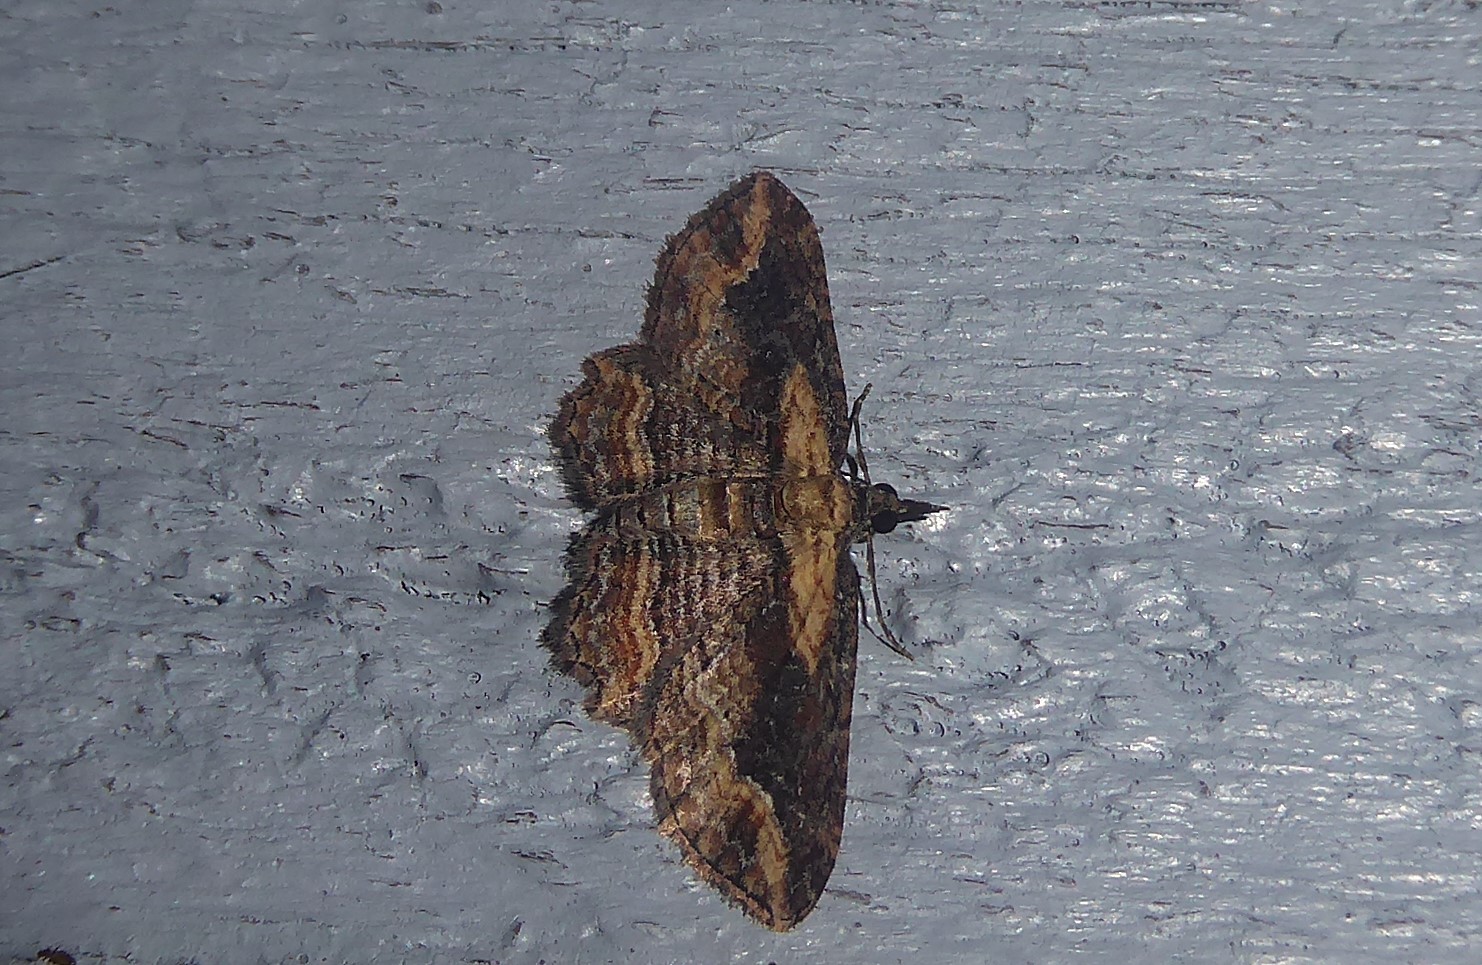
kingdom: Animalia
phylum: Arthropoda
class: Insecta
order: Lepidoptera
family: Geometridae
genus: Chloroclystis
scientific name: Chloroclystis filata
